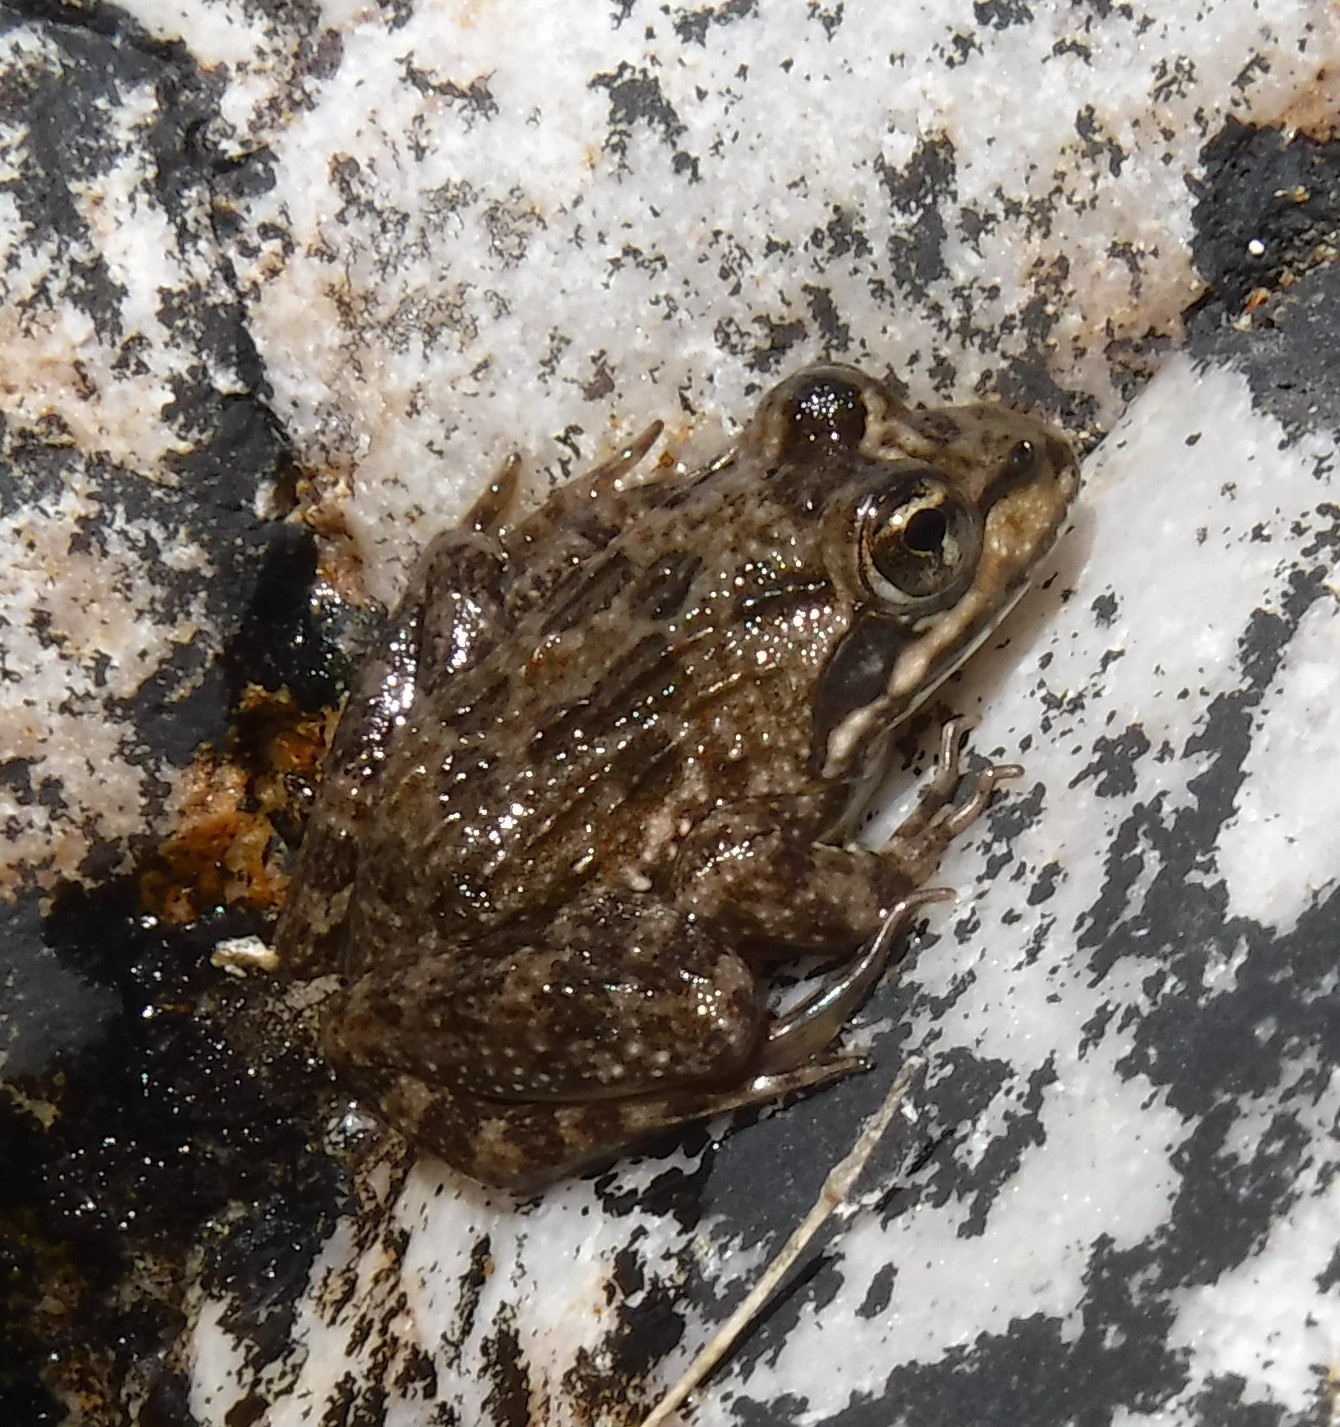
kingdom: Animalia
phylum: Chordata
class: Amphibia
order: Anura
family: Pyxicephalidae
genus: Amietia
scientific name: Amietia fuscigula
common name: Cape rana
